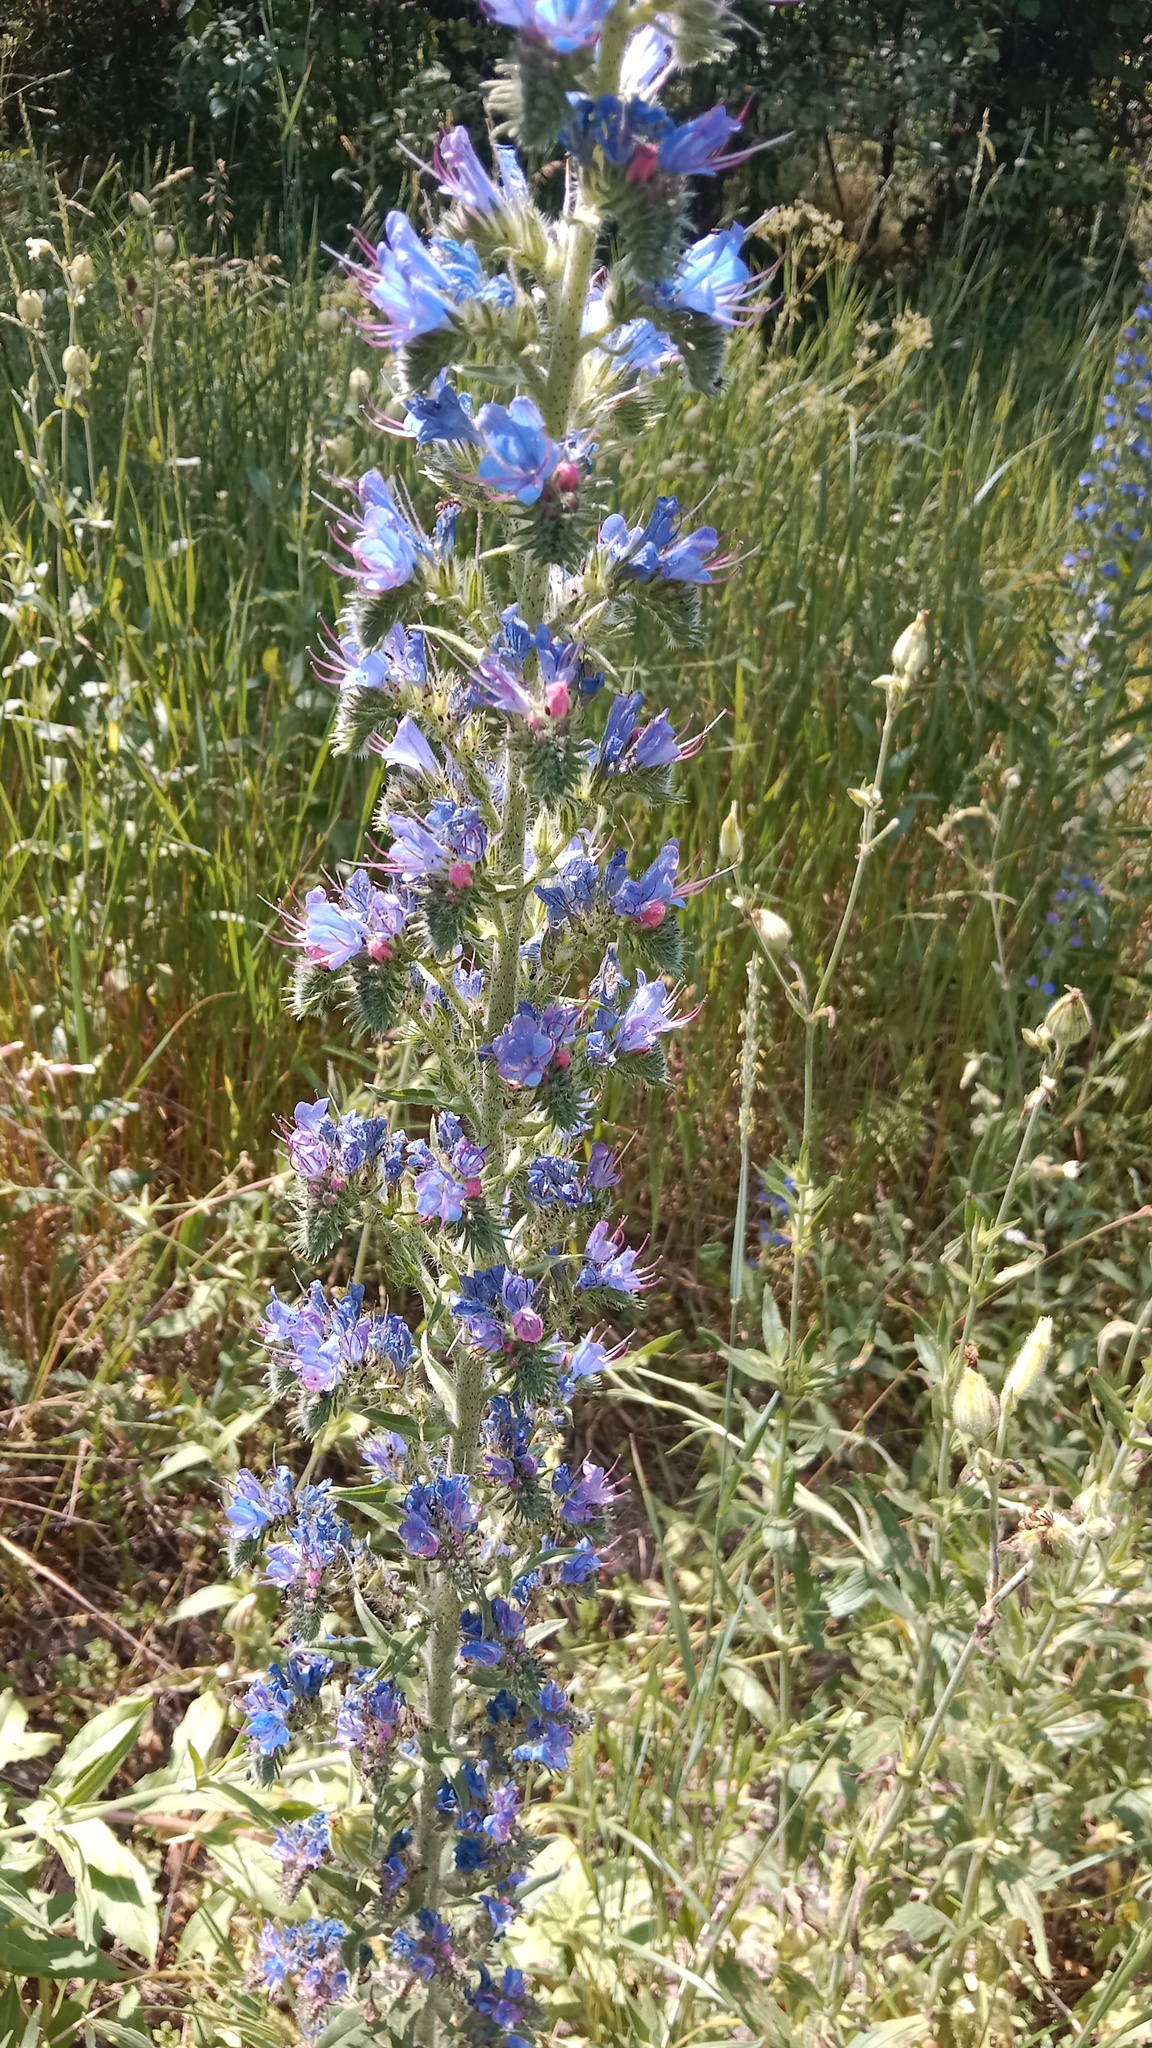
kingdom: Plantae
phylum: Tracheophyta
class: Magnoliopsida
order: Boraginales
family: Boraginaceae
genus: Echium
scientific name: Echium vulgare
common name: Common viper's bugloss
